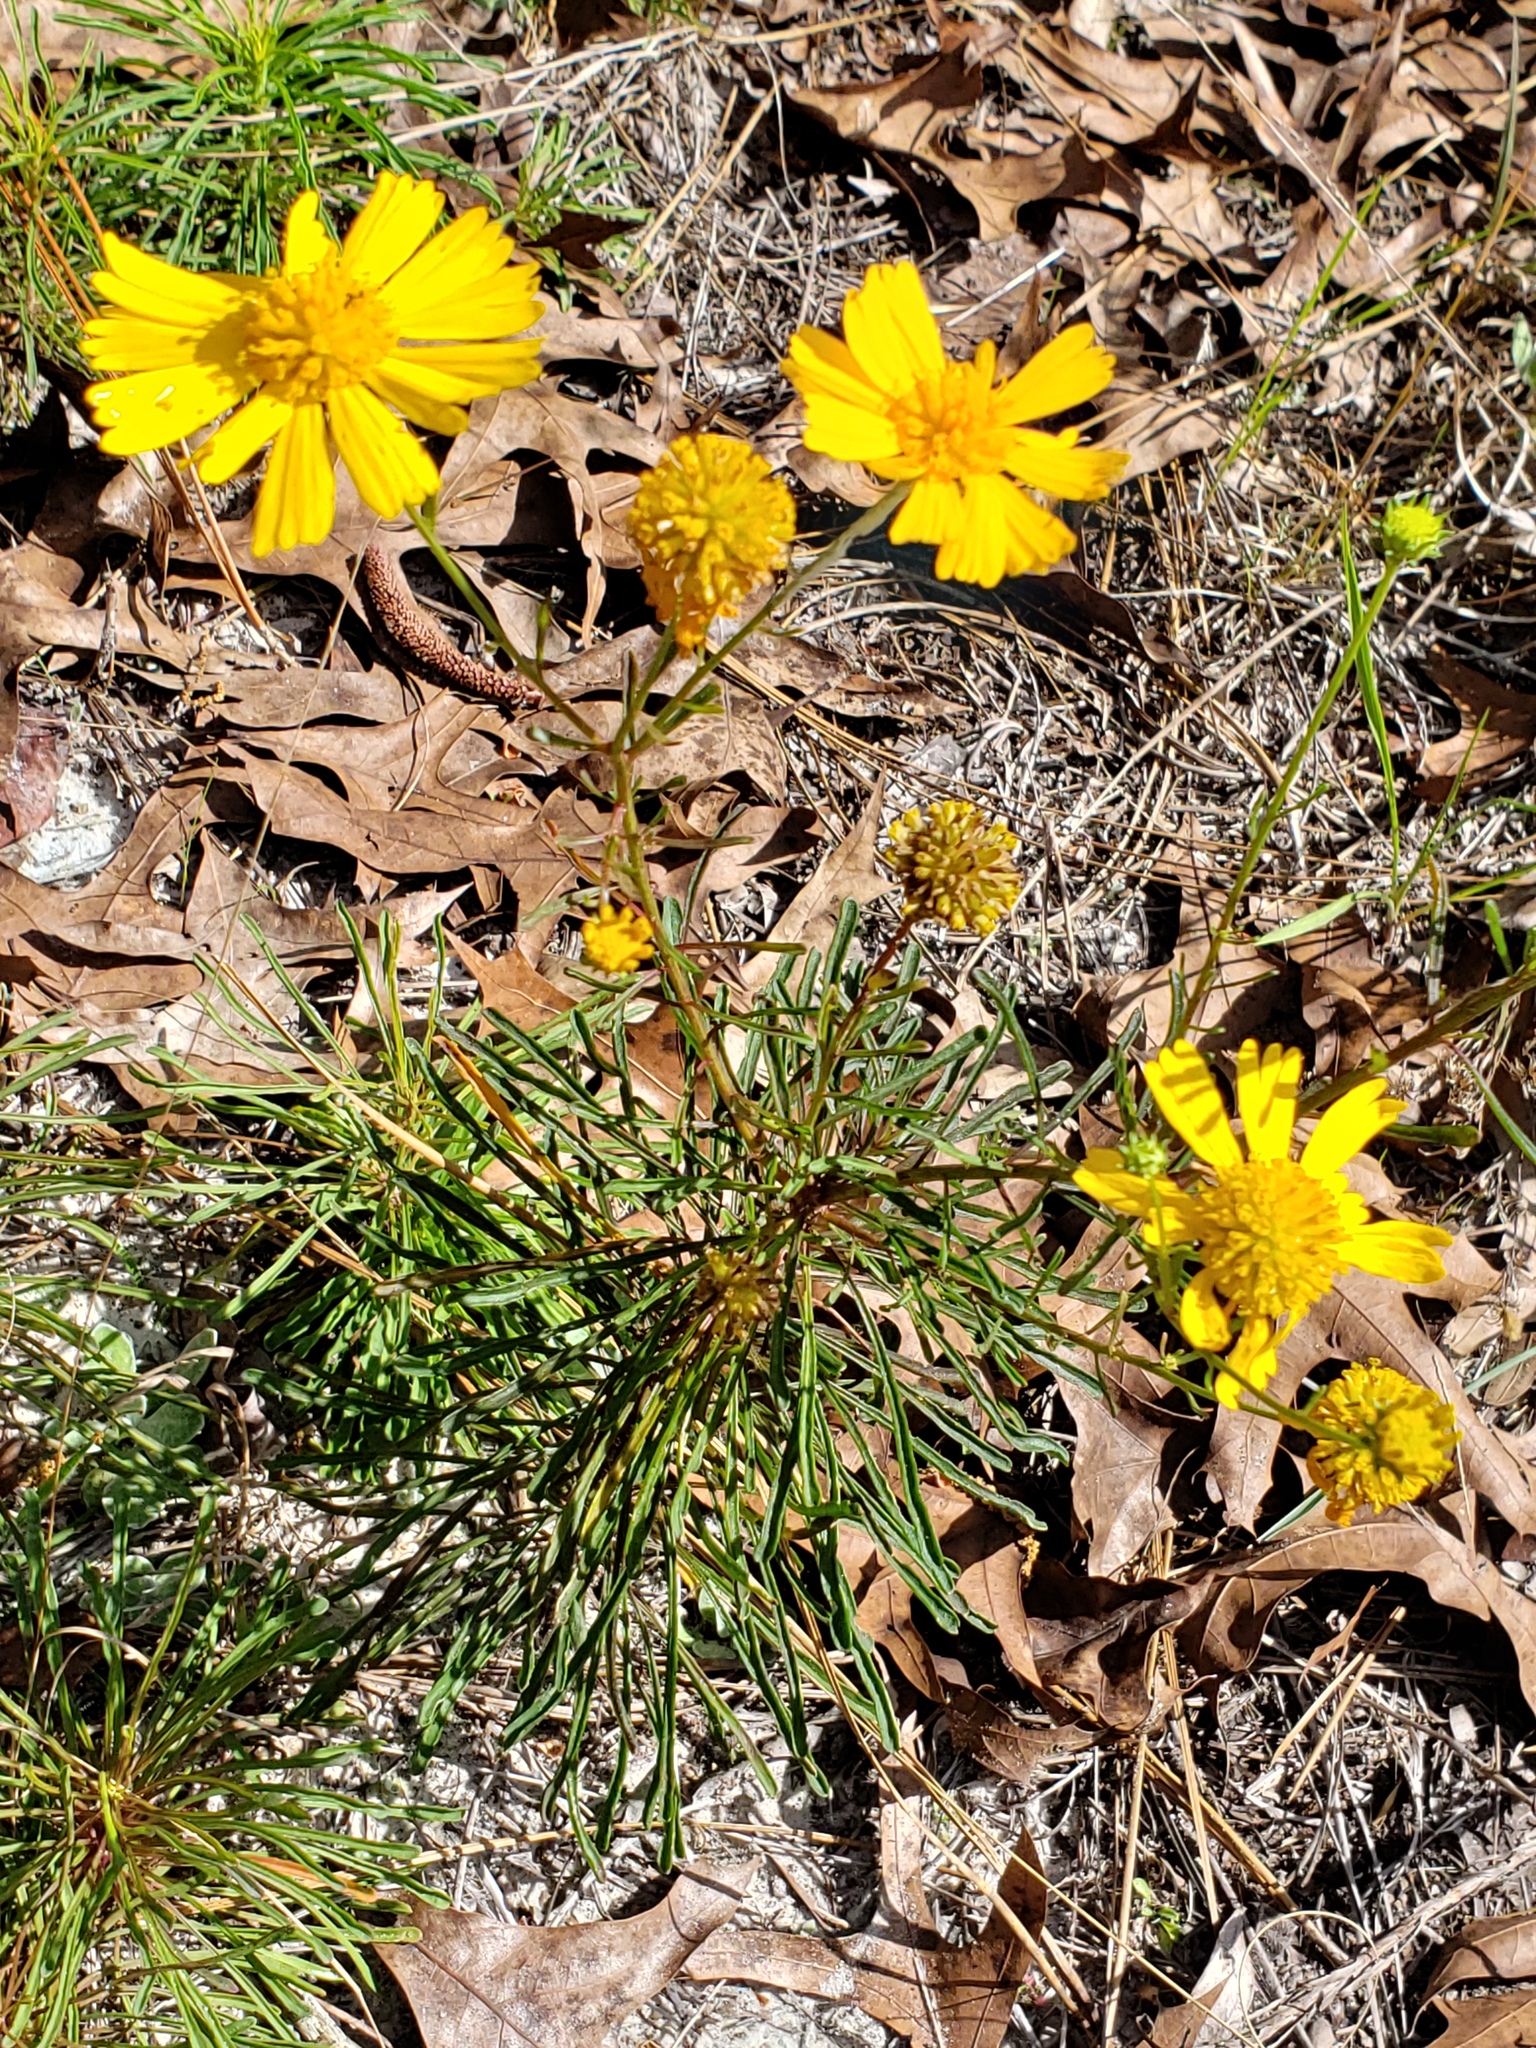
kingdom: Plantae
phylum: Tracheophyta
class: Magnoliopsida
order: Asterales
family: Asteraceae
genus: Balduina
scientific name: Balduina angustifolia
